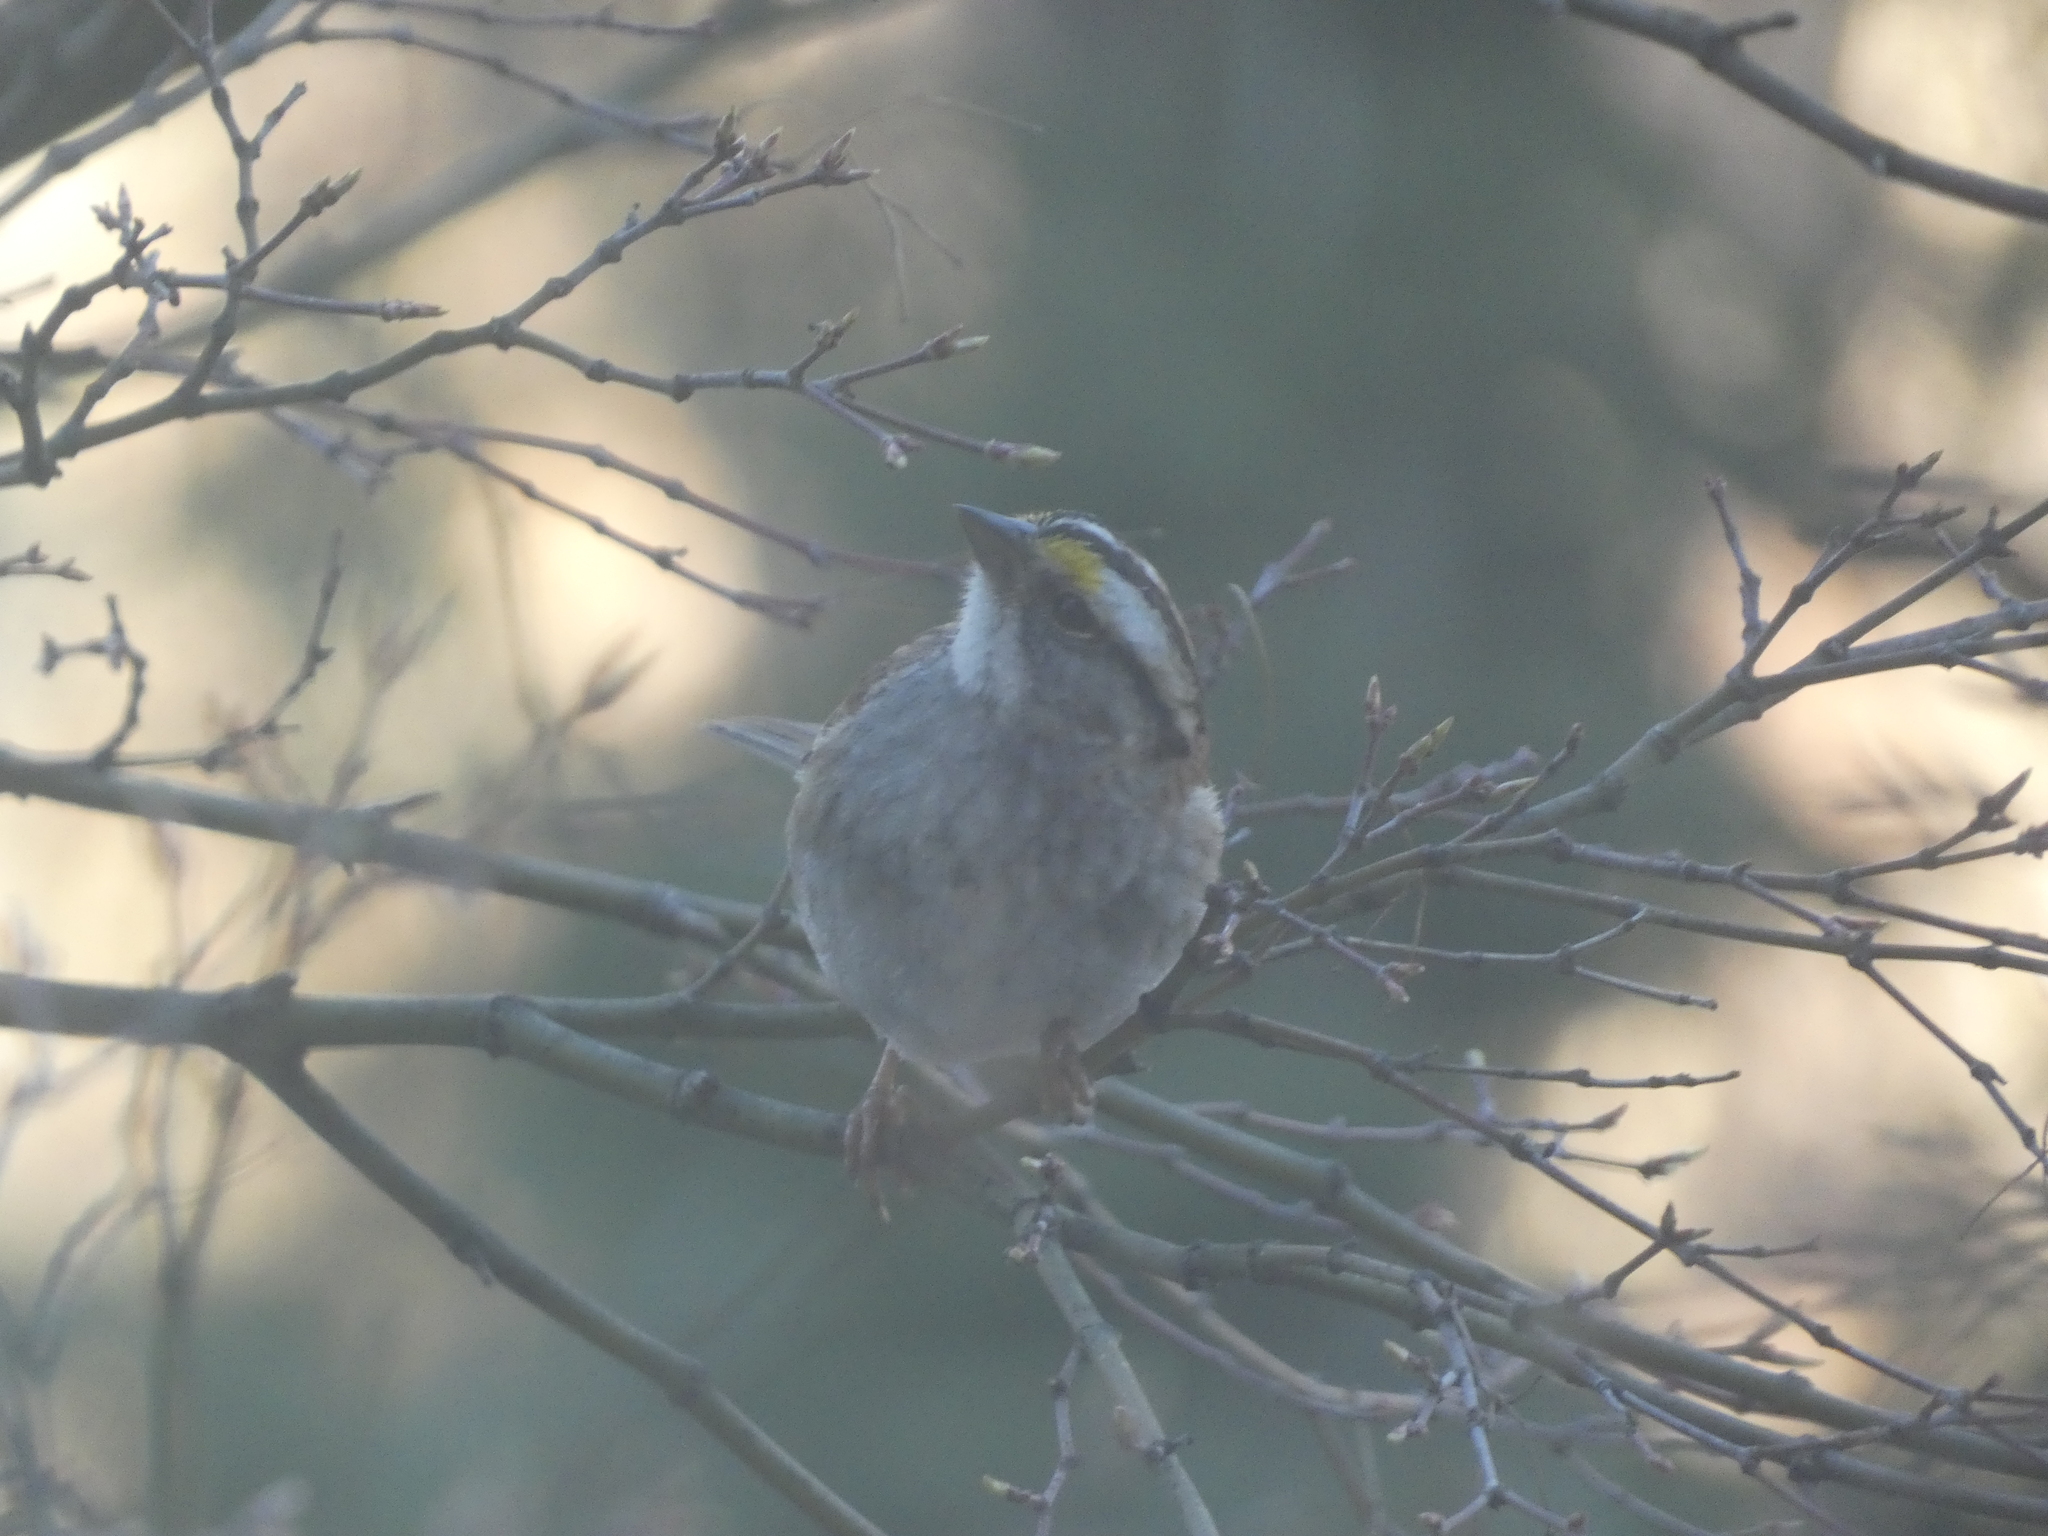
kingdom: Animalia
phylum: Chordata
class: Aves
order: Passeriformes
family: Passerellidae
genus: Zonotrichia
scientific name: Zonotrichia albicollis
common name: White-throated sparrow
